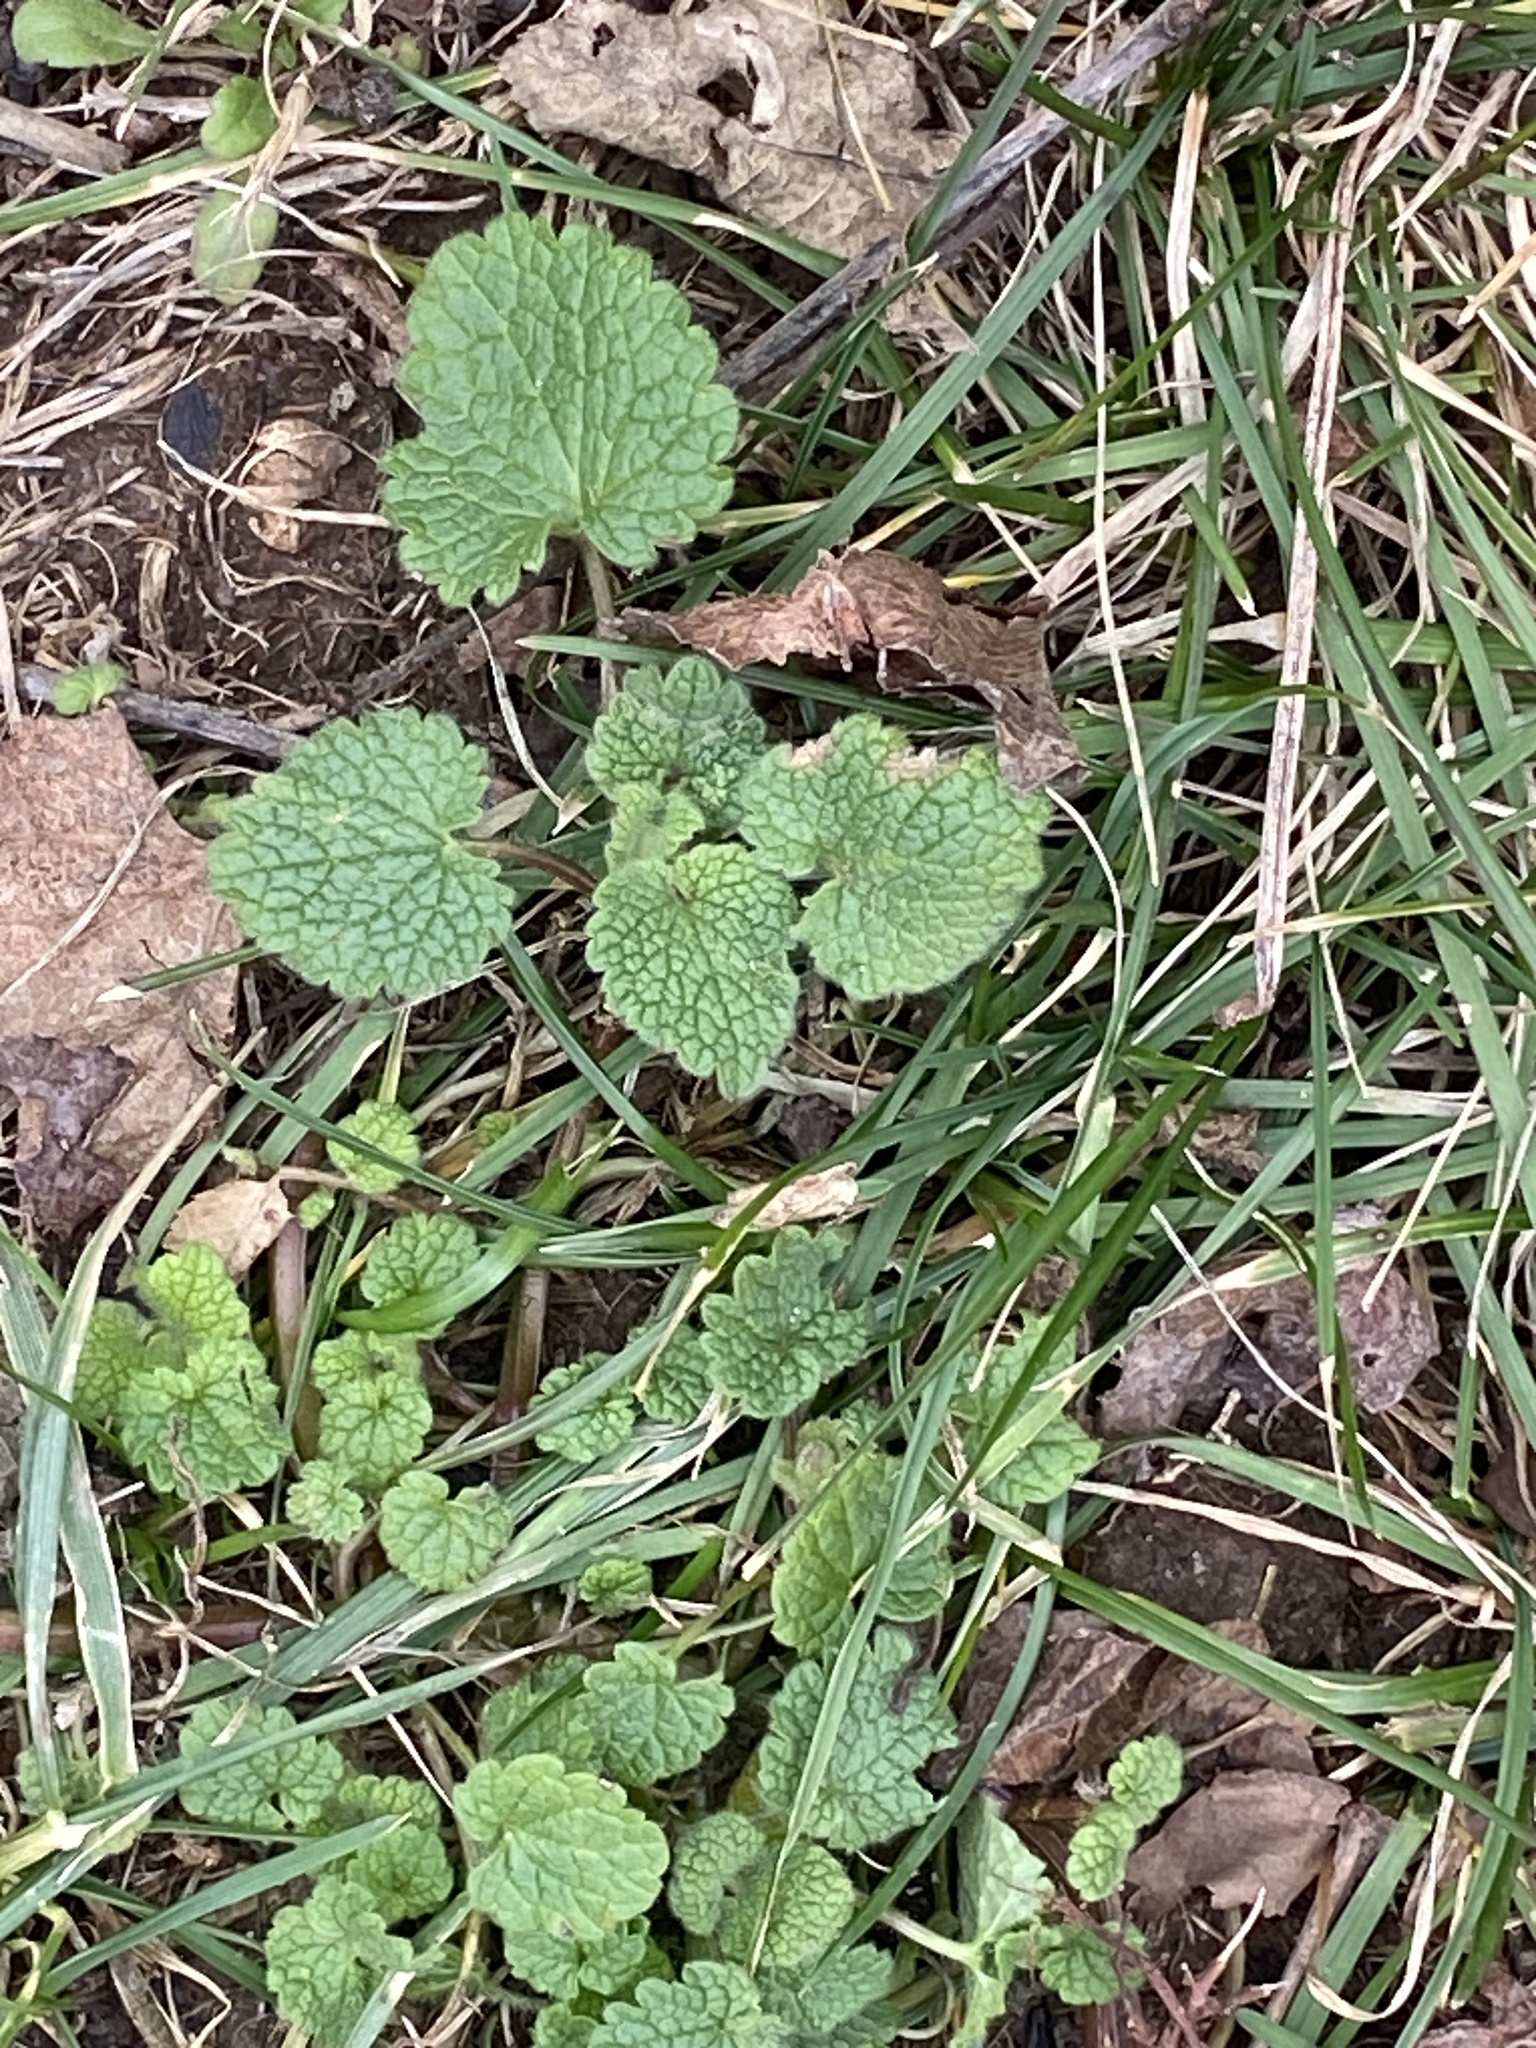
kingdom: Plantae
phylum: Tracheophyta
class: Magnoliopsida
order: Lamiales
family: Lamiaceae
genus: Lamium
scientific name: Lamium purpureum
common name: Red dead-nettle
